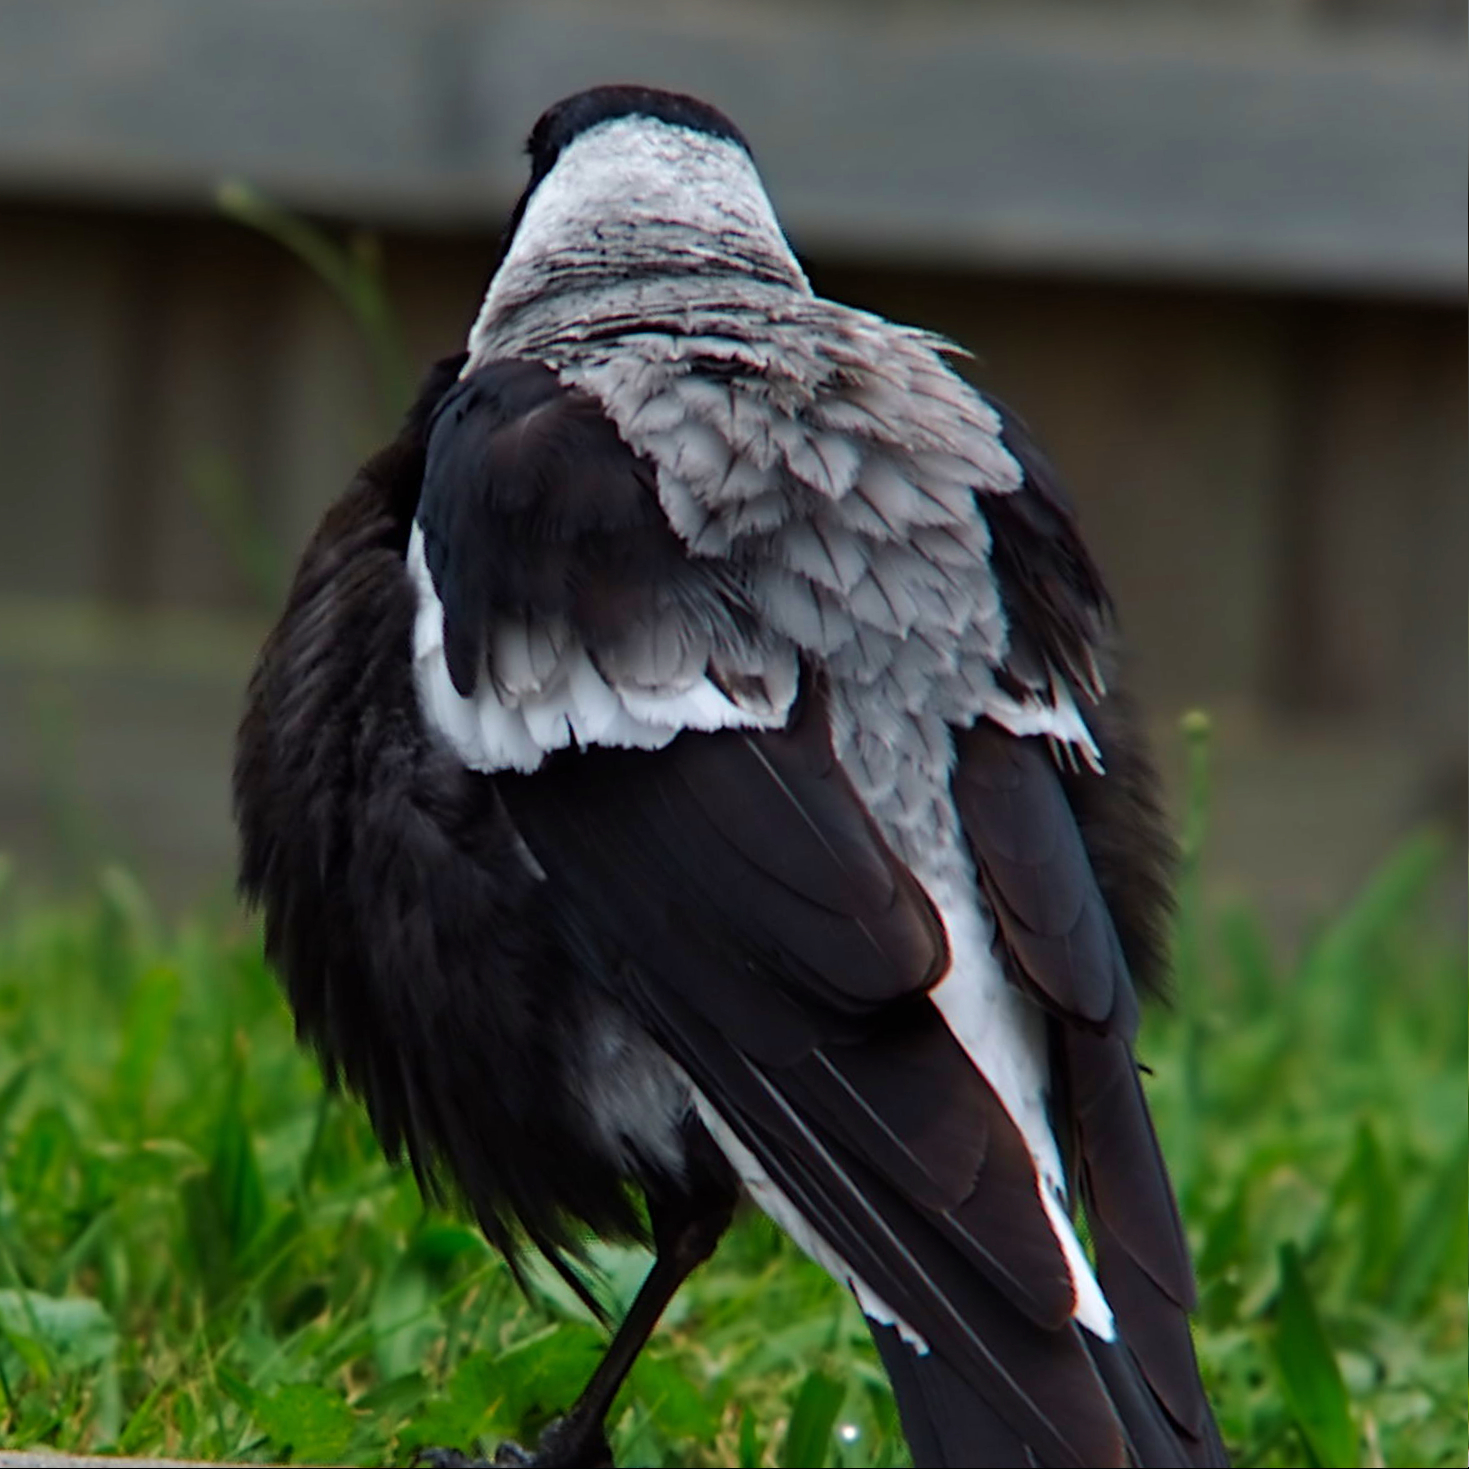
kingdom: Animalia
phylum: Chordata
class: Aves
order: Passeriformes
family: Cracticidae
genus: Gymnorhina
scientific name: Gymnorhina tibicen
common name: Australian magpie
